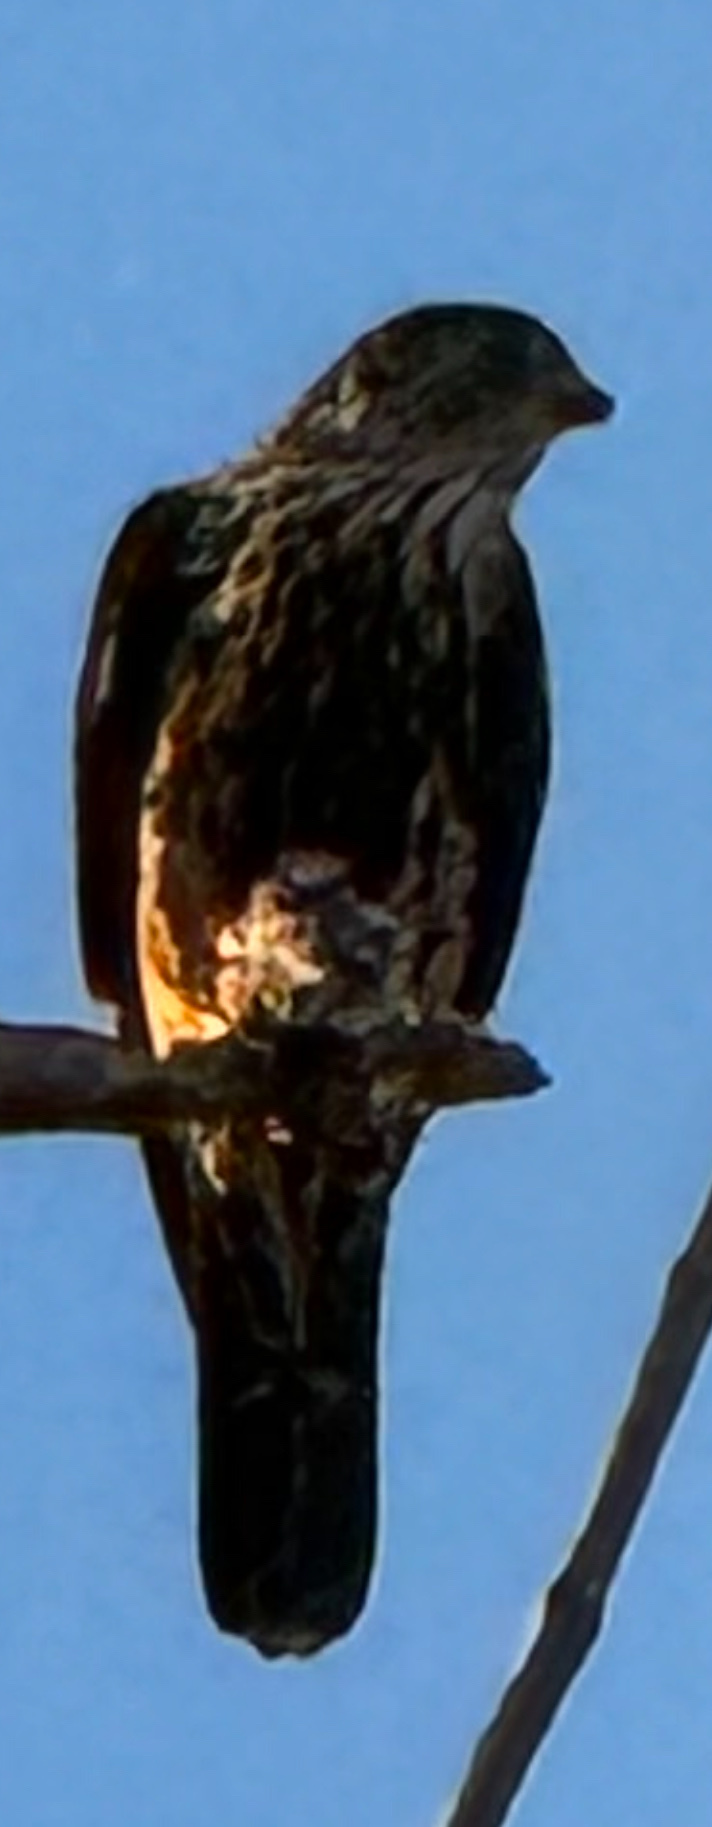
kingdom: Animalia
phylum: Chordata
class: Aves
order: Falconiformes
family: Falconidae
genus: Falco
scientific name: Falco columbarius
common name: Merlin
